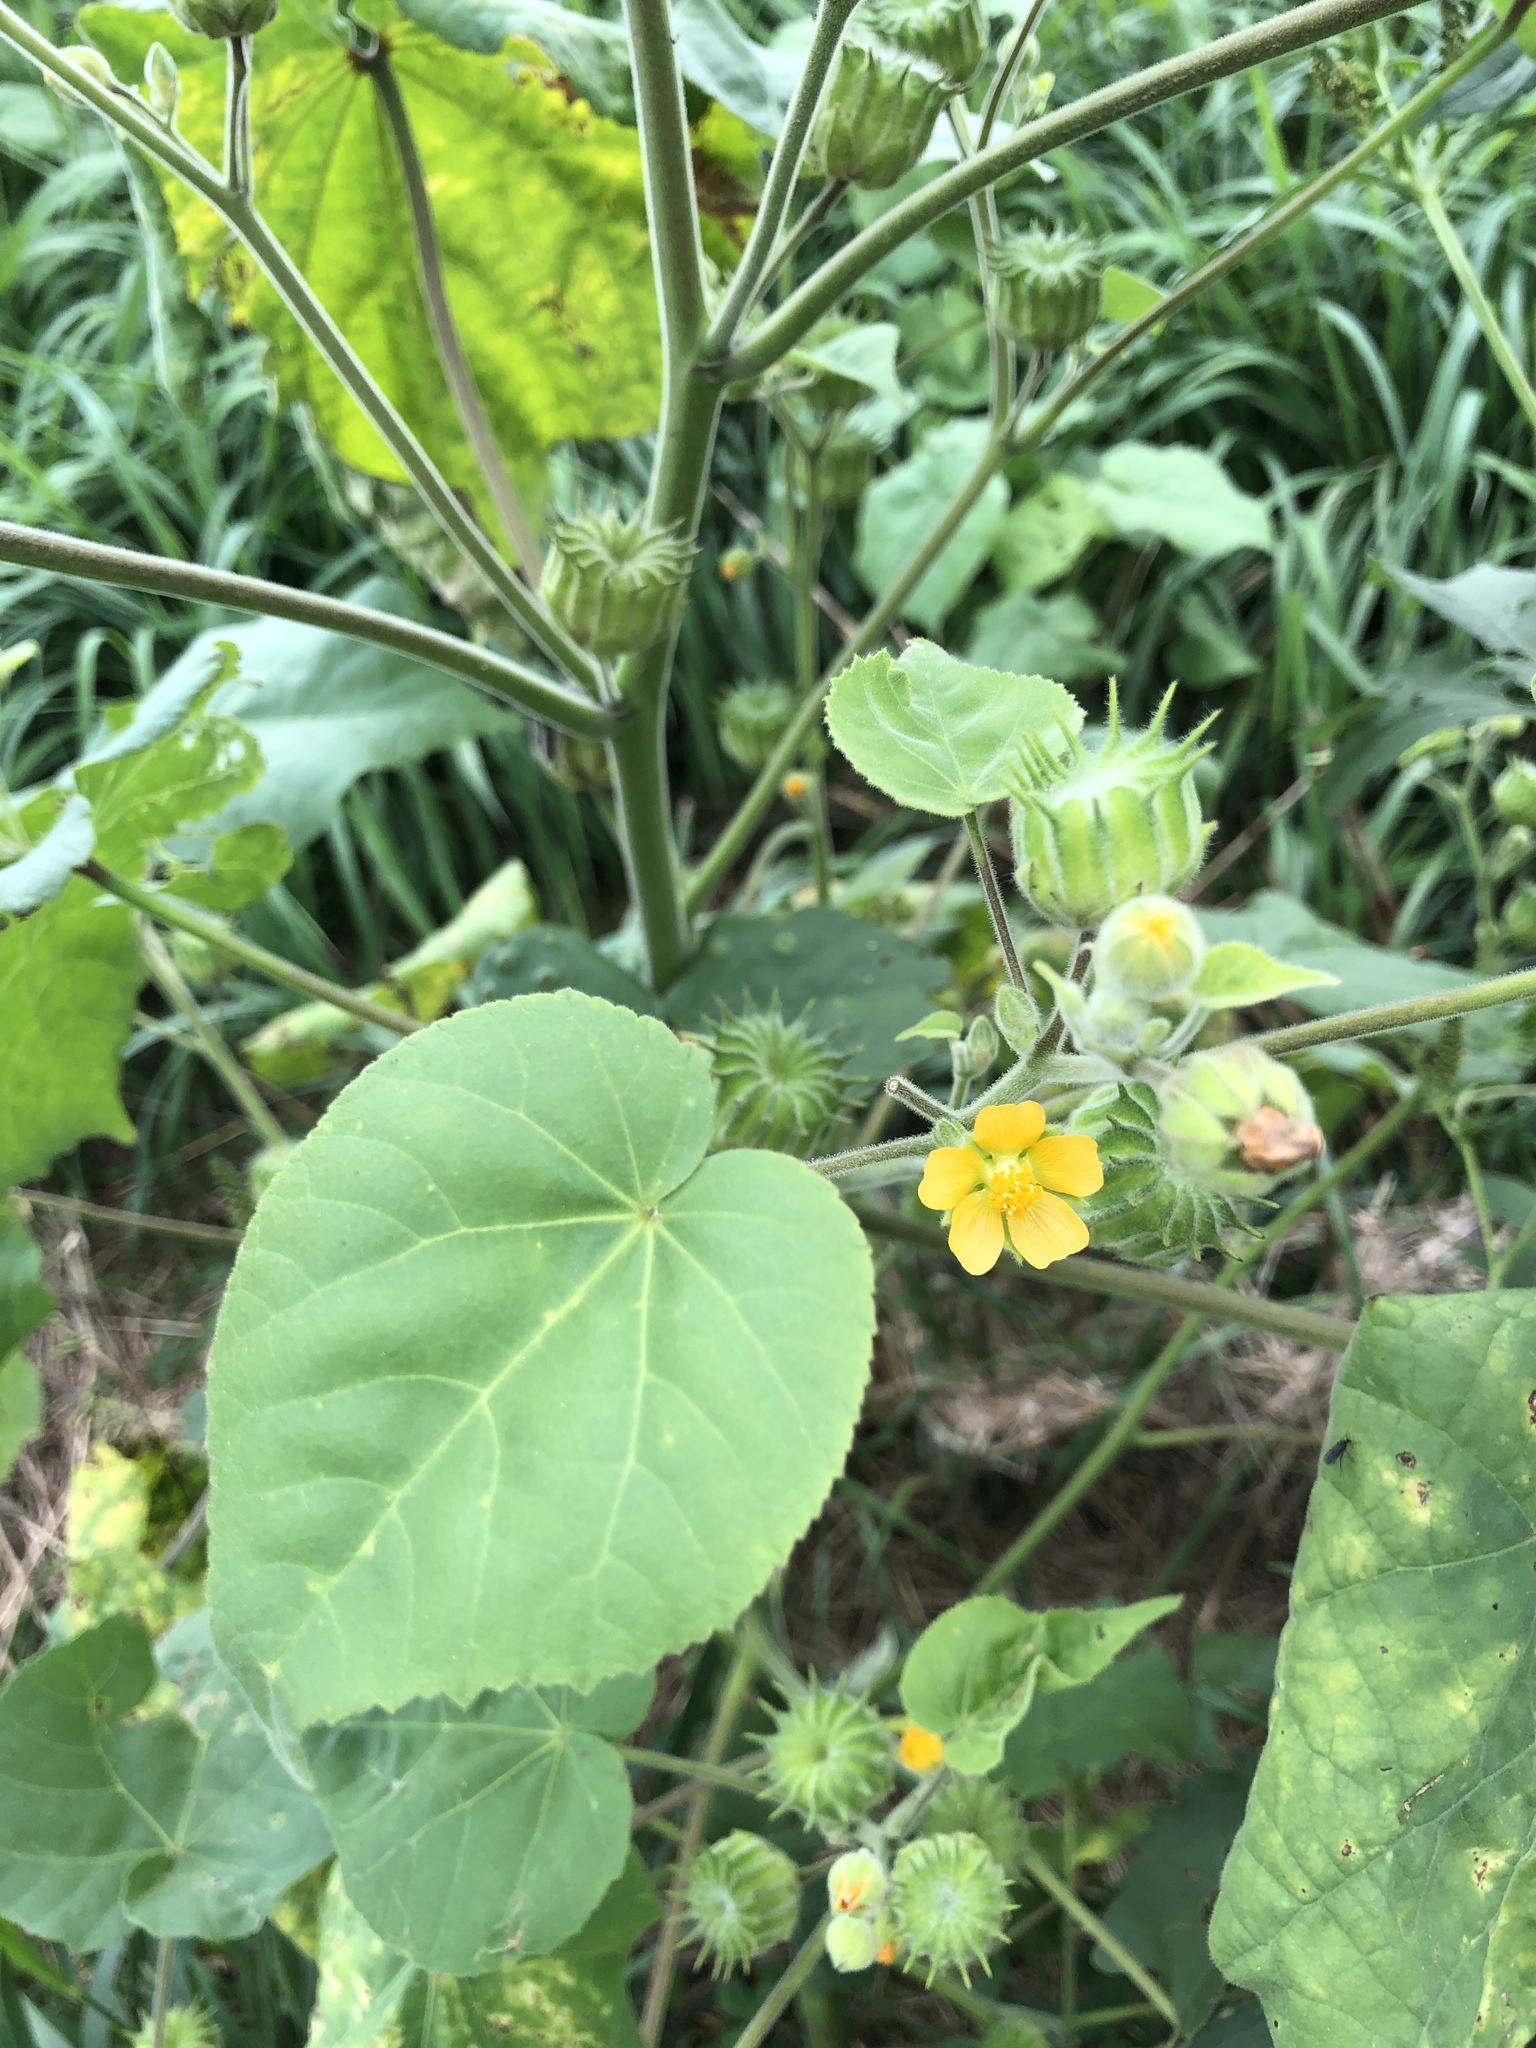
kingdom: Plantae
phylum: Tracheophyta
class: Magnoliopsida
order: Malvales
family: Malvaceae
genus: Abutilon
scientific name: Abutilon theophrasti
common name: Velvetleaf
